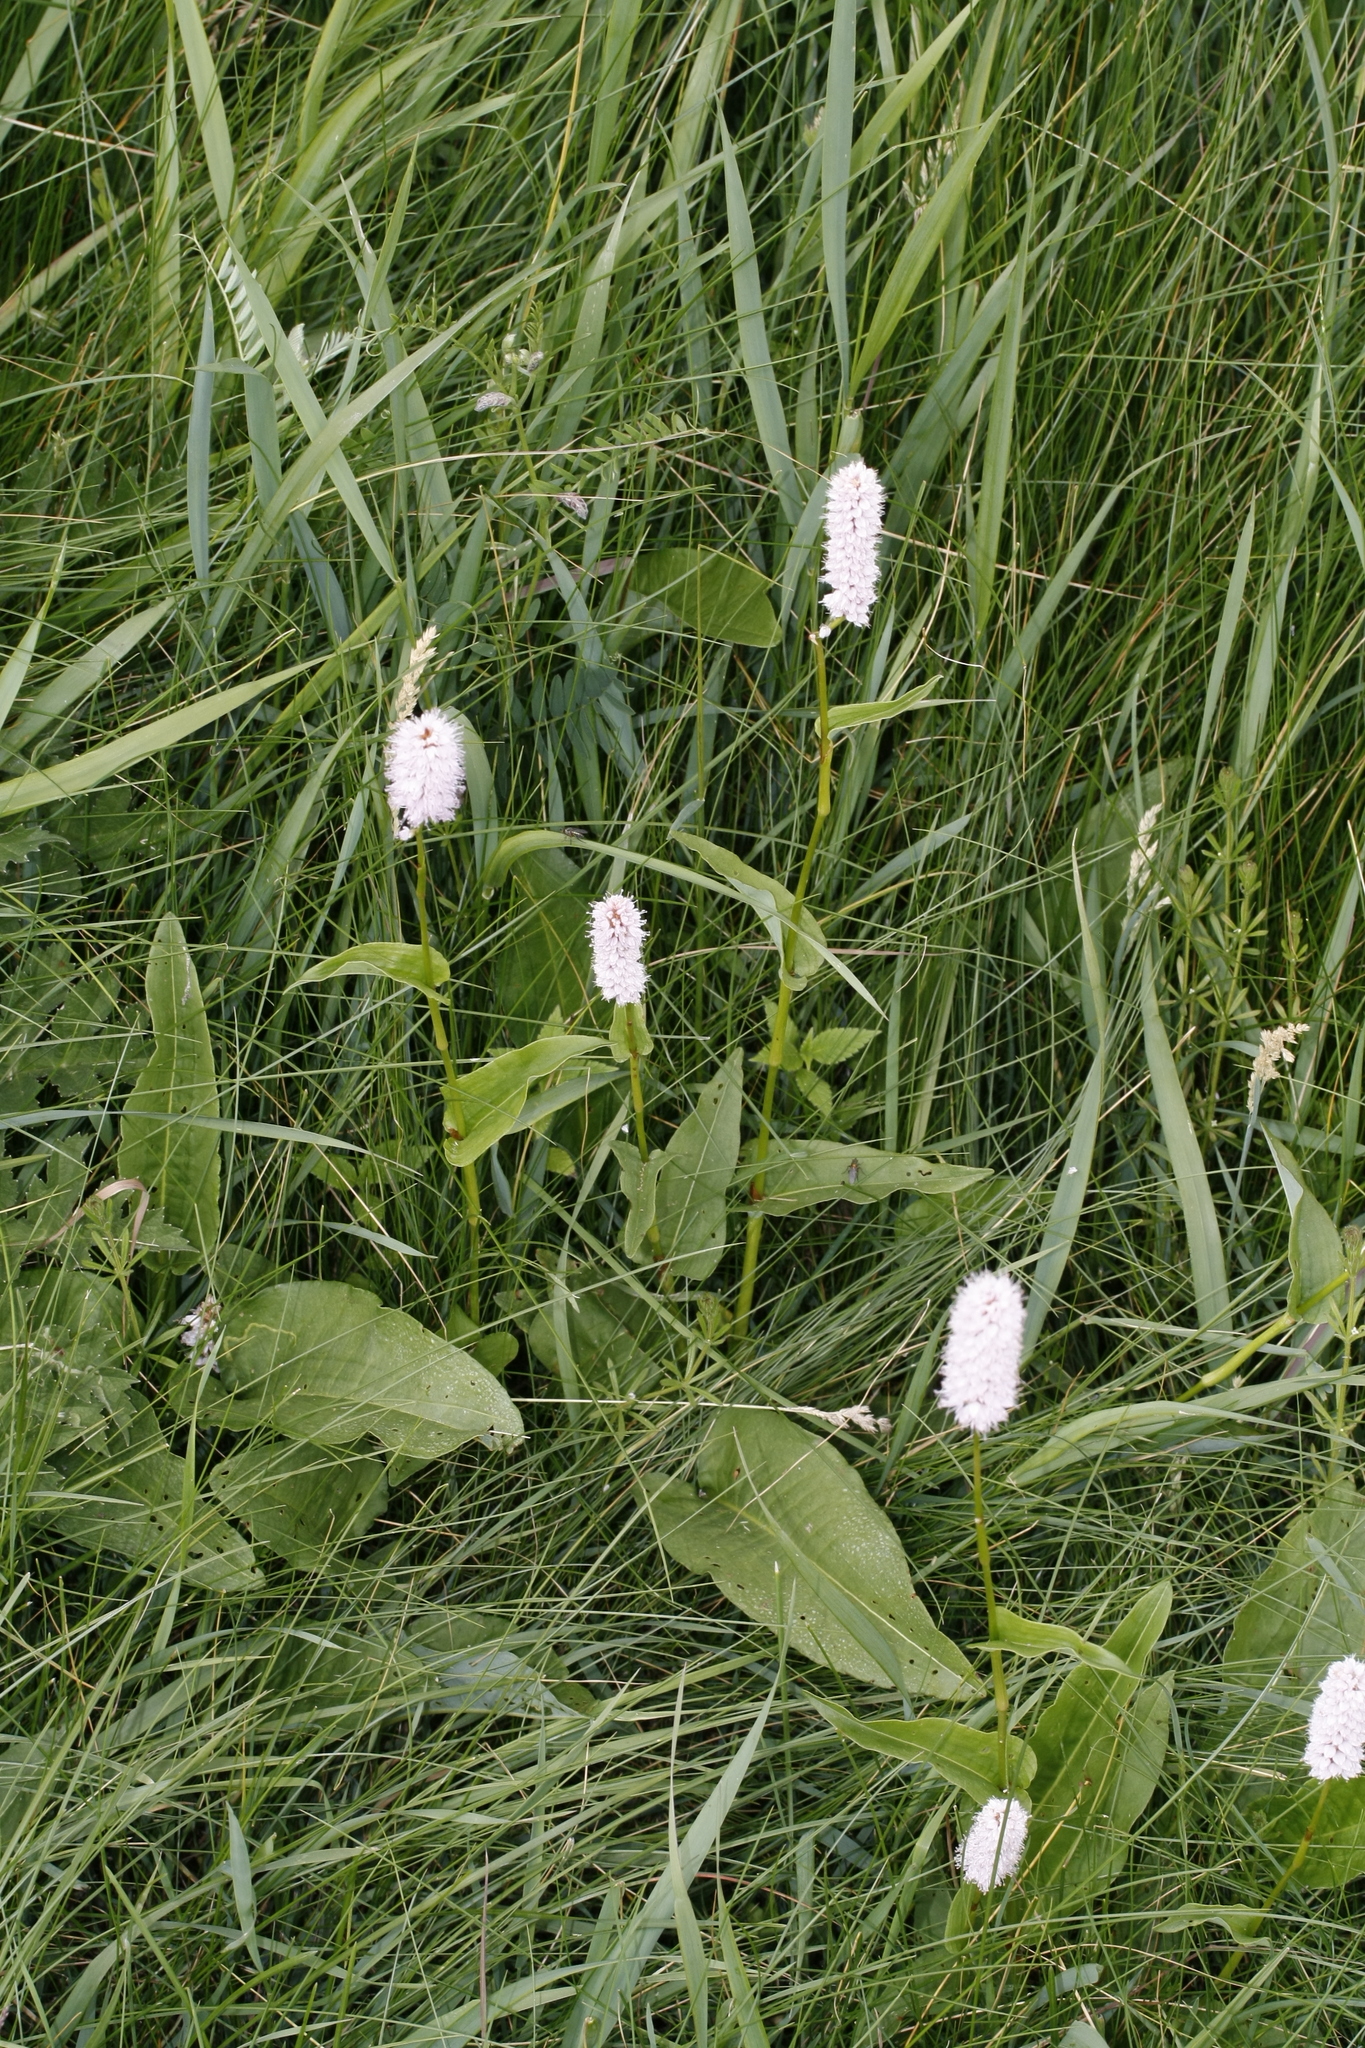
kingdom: Plantae
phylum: Tracheophyta
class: Magnoliopsida
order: Caryophyllales
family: Polygonaceae
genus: Bistorta
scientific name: Bistorta officinalis
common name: Common bistort
